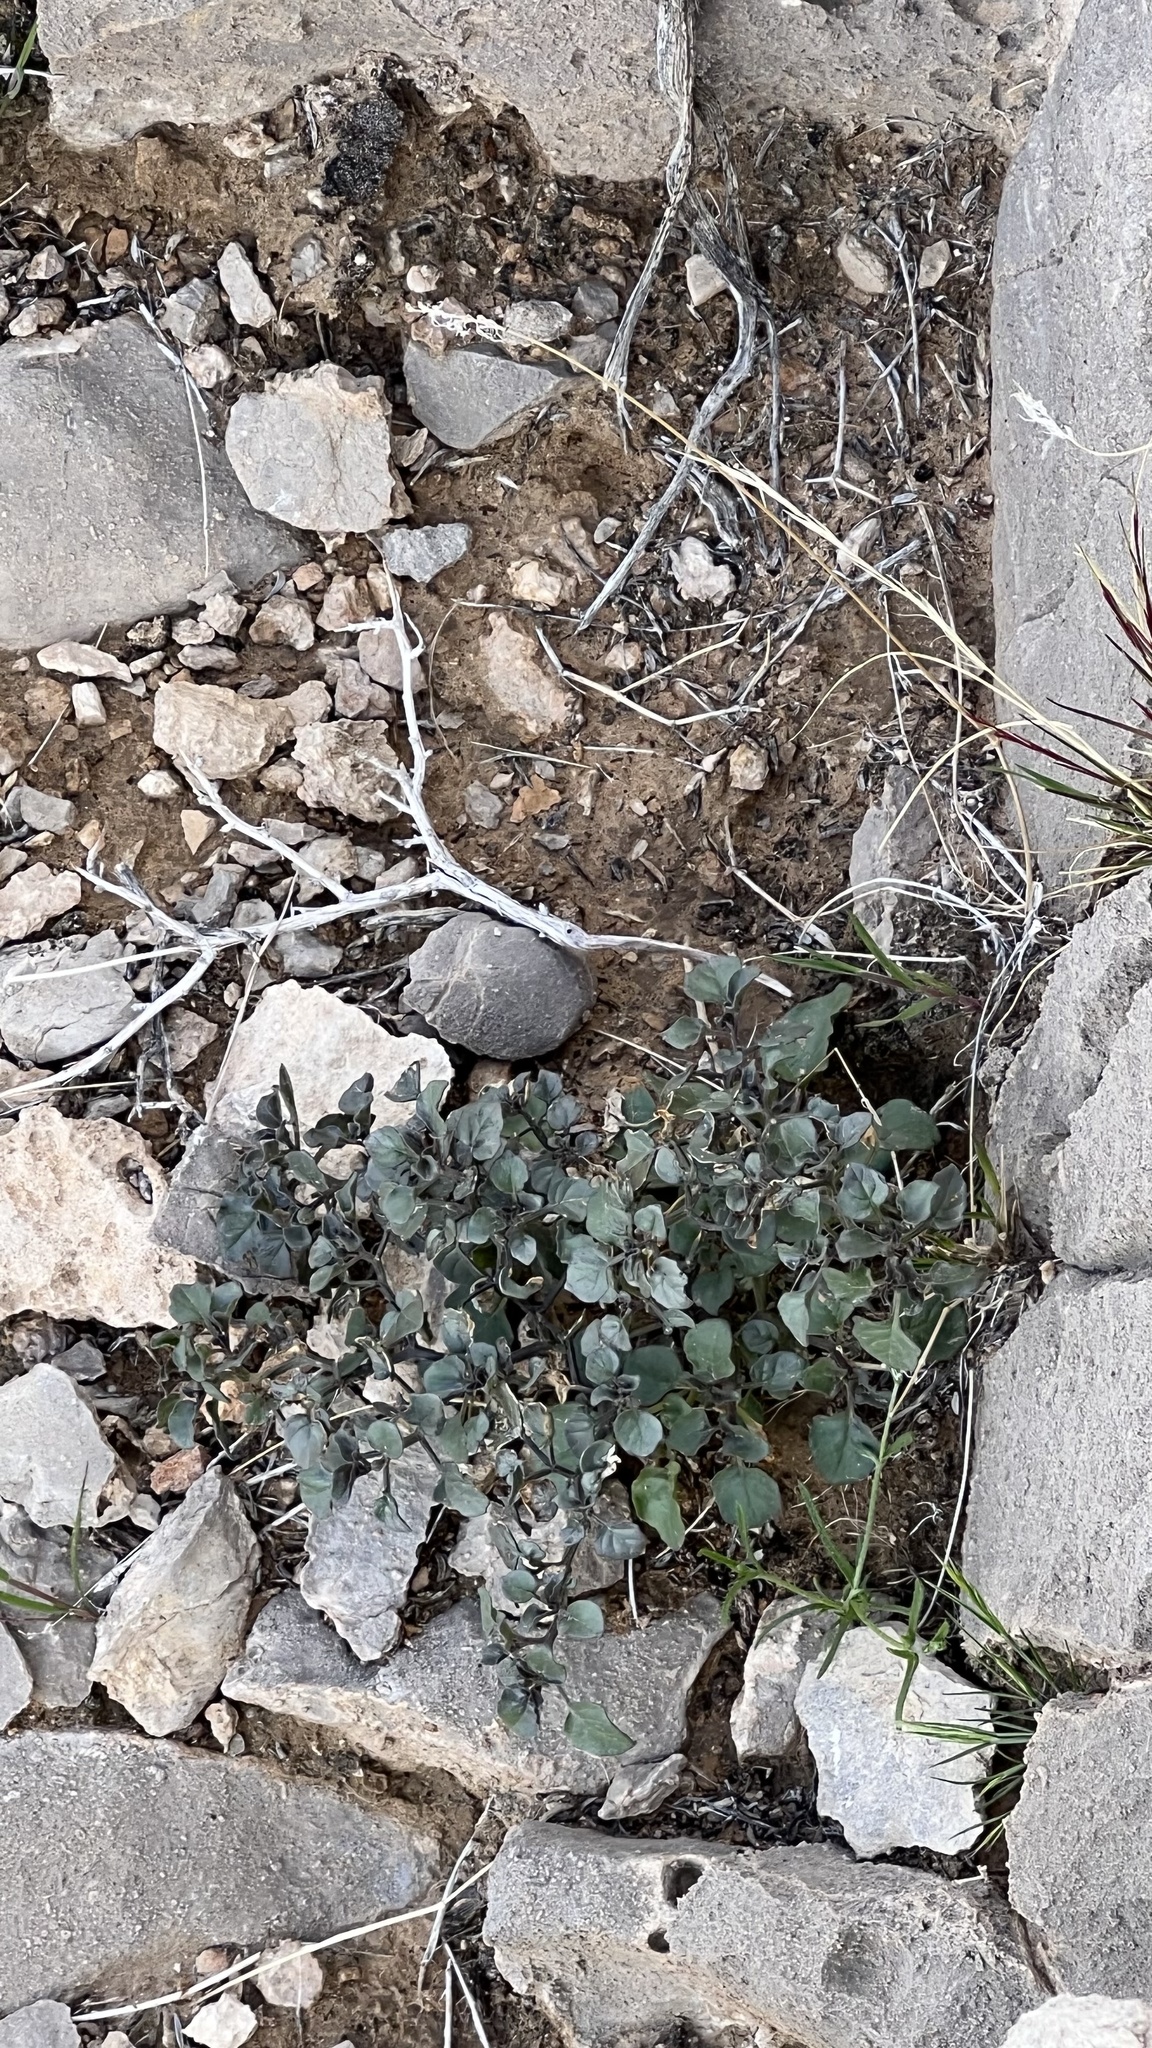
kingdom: Plantae
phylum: Tracheophyta
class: Magnoliopsida
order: Solanales
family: Solanaceae
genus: Physalis
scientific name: Physalis crassifolia
